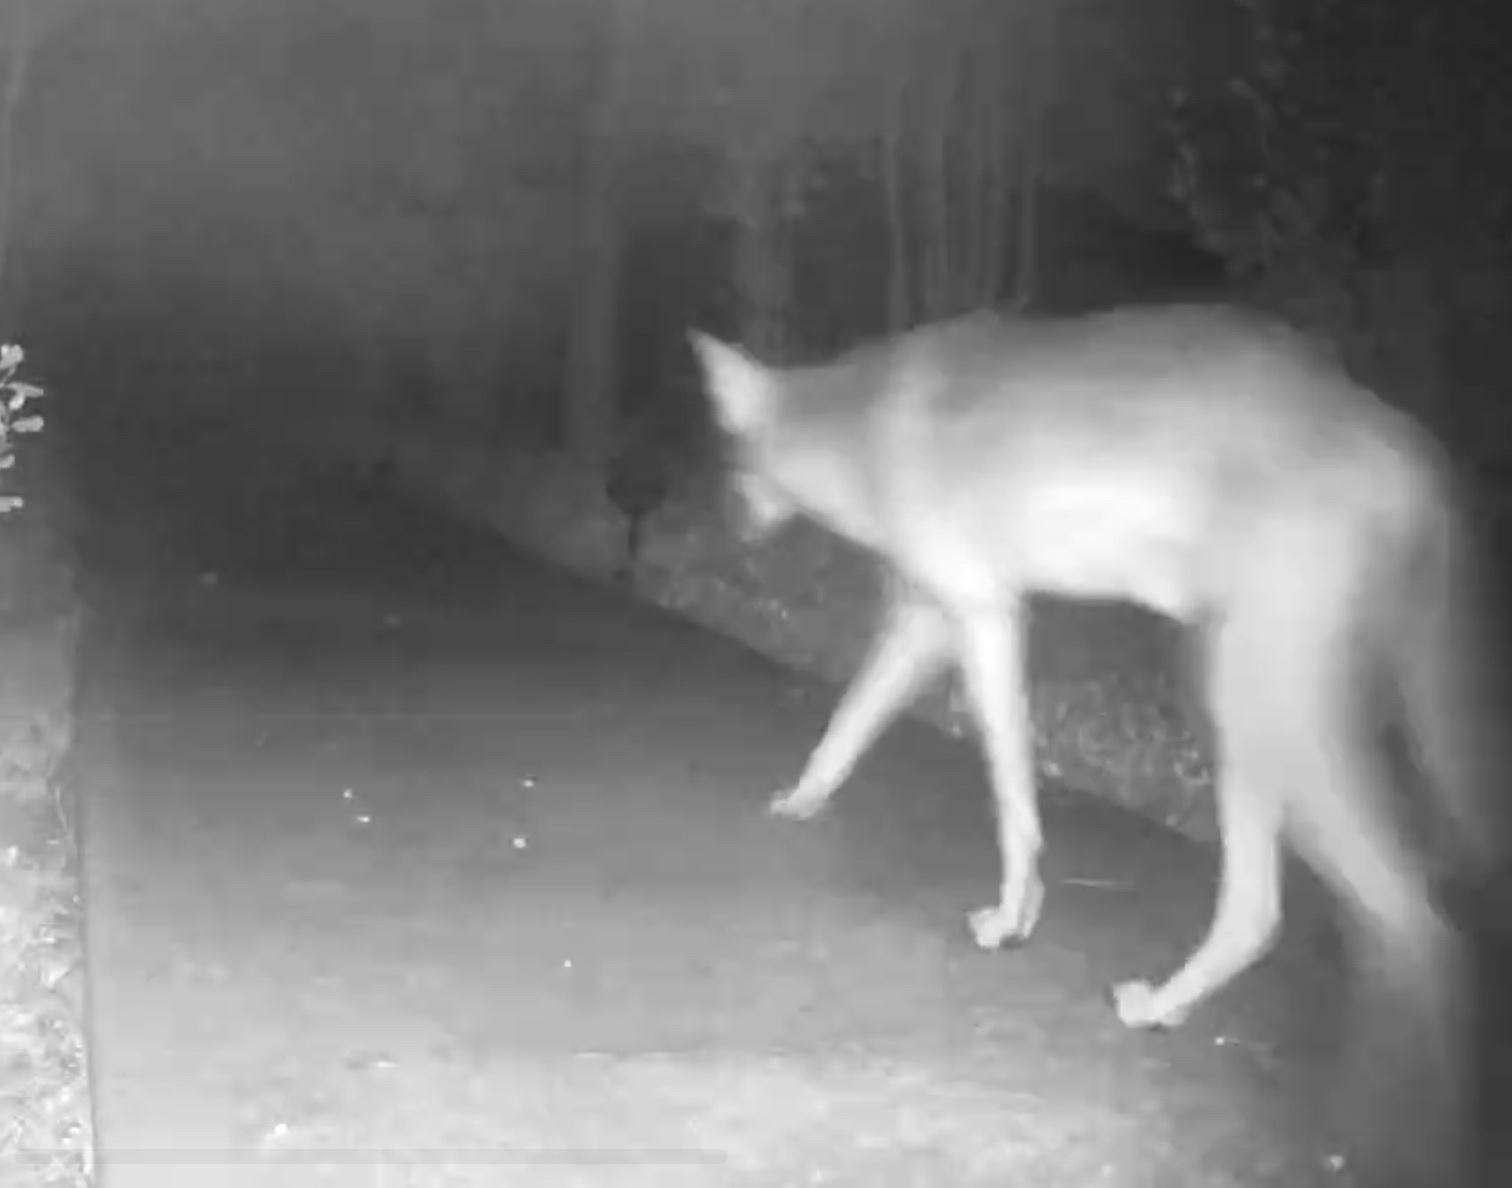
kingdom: Animalia
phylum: Chordata
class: Mammalia
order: Carnivora
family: Canidae
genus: Canis
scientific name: Canis latrans
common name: Coyote
